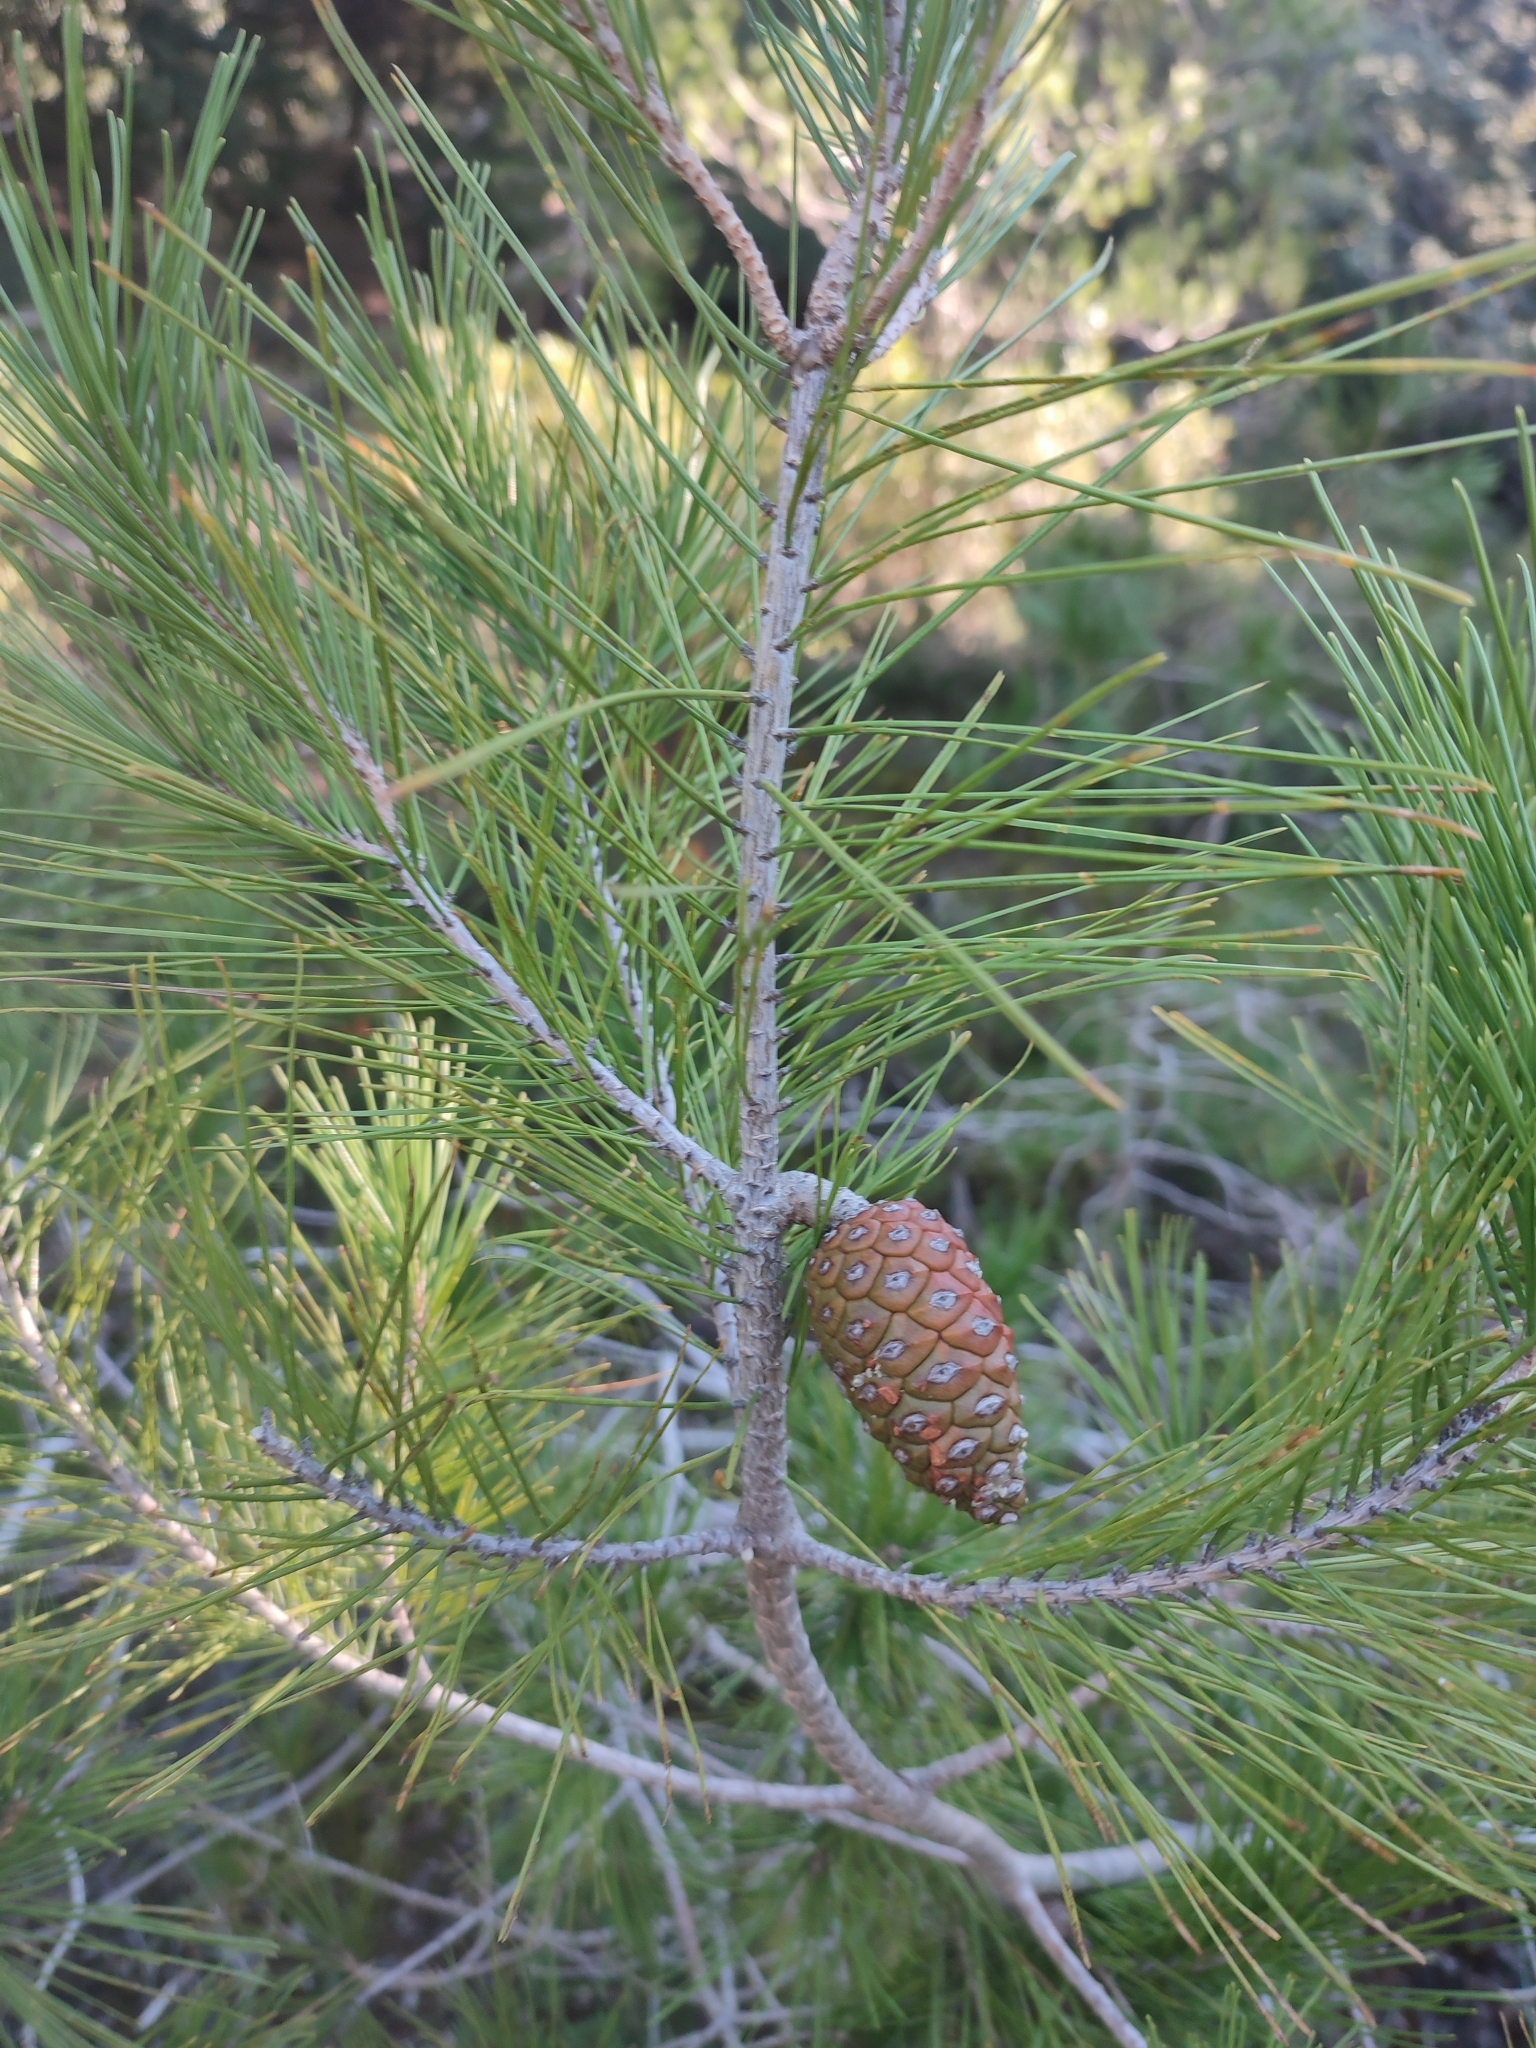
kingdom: Plantae
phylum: Tracheophyta
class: Pinopsida
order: Pinales
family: Pinaceae
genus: Pinus
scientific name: Pinus halepensis
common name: Aleppo pine
